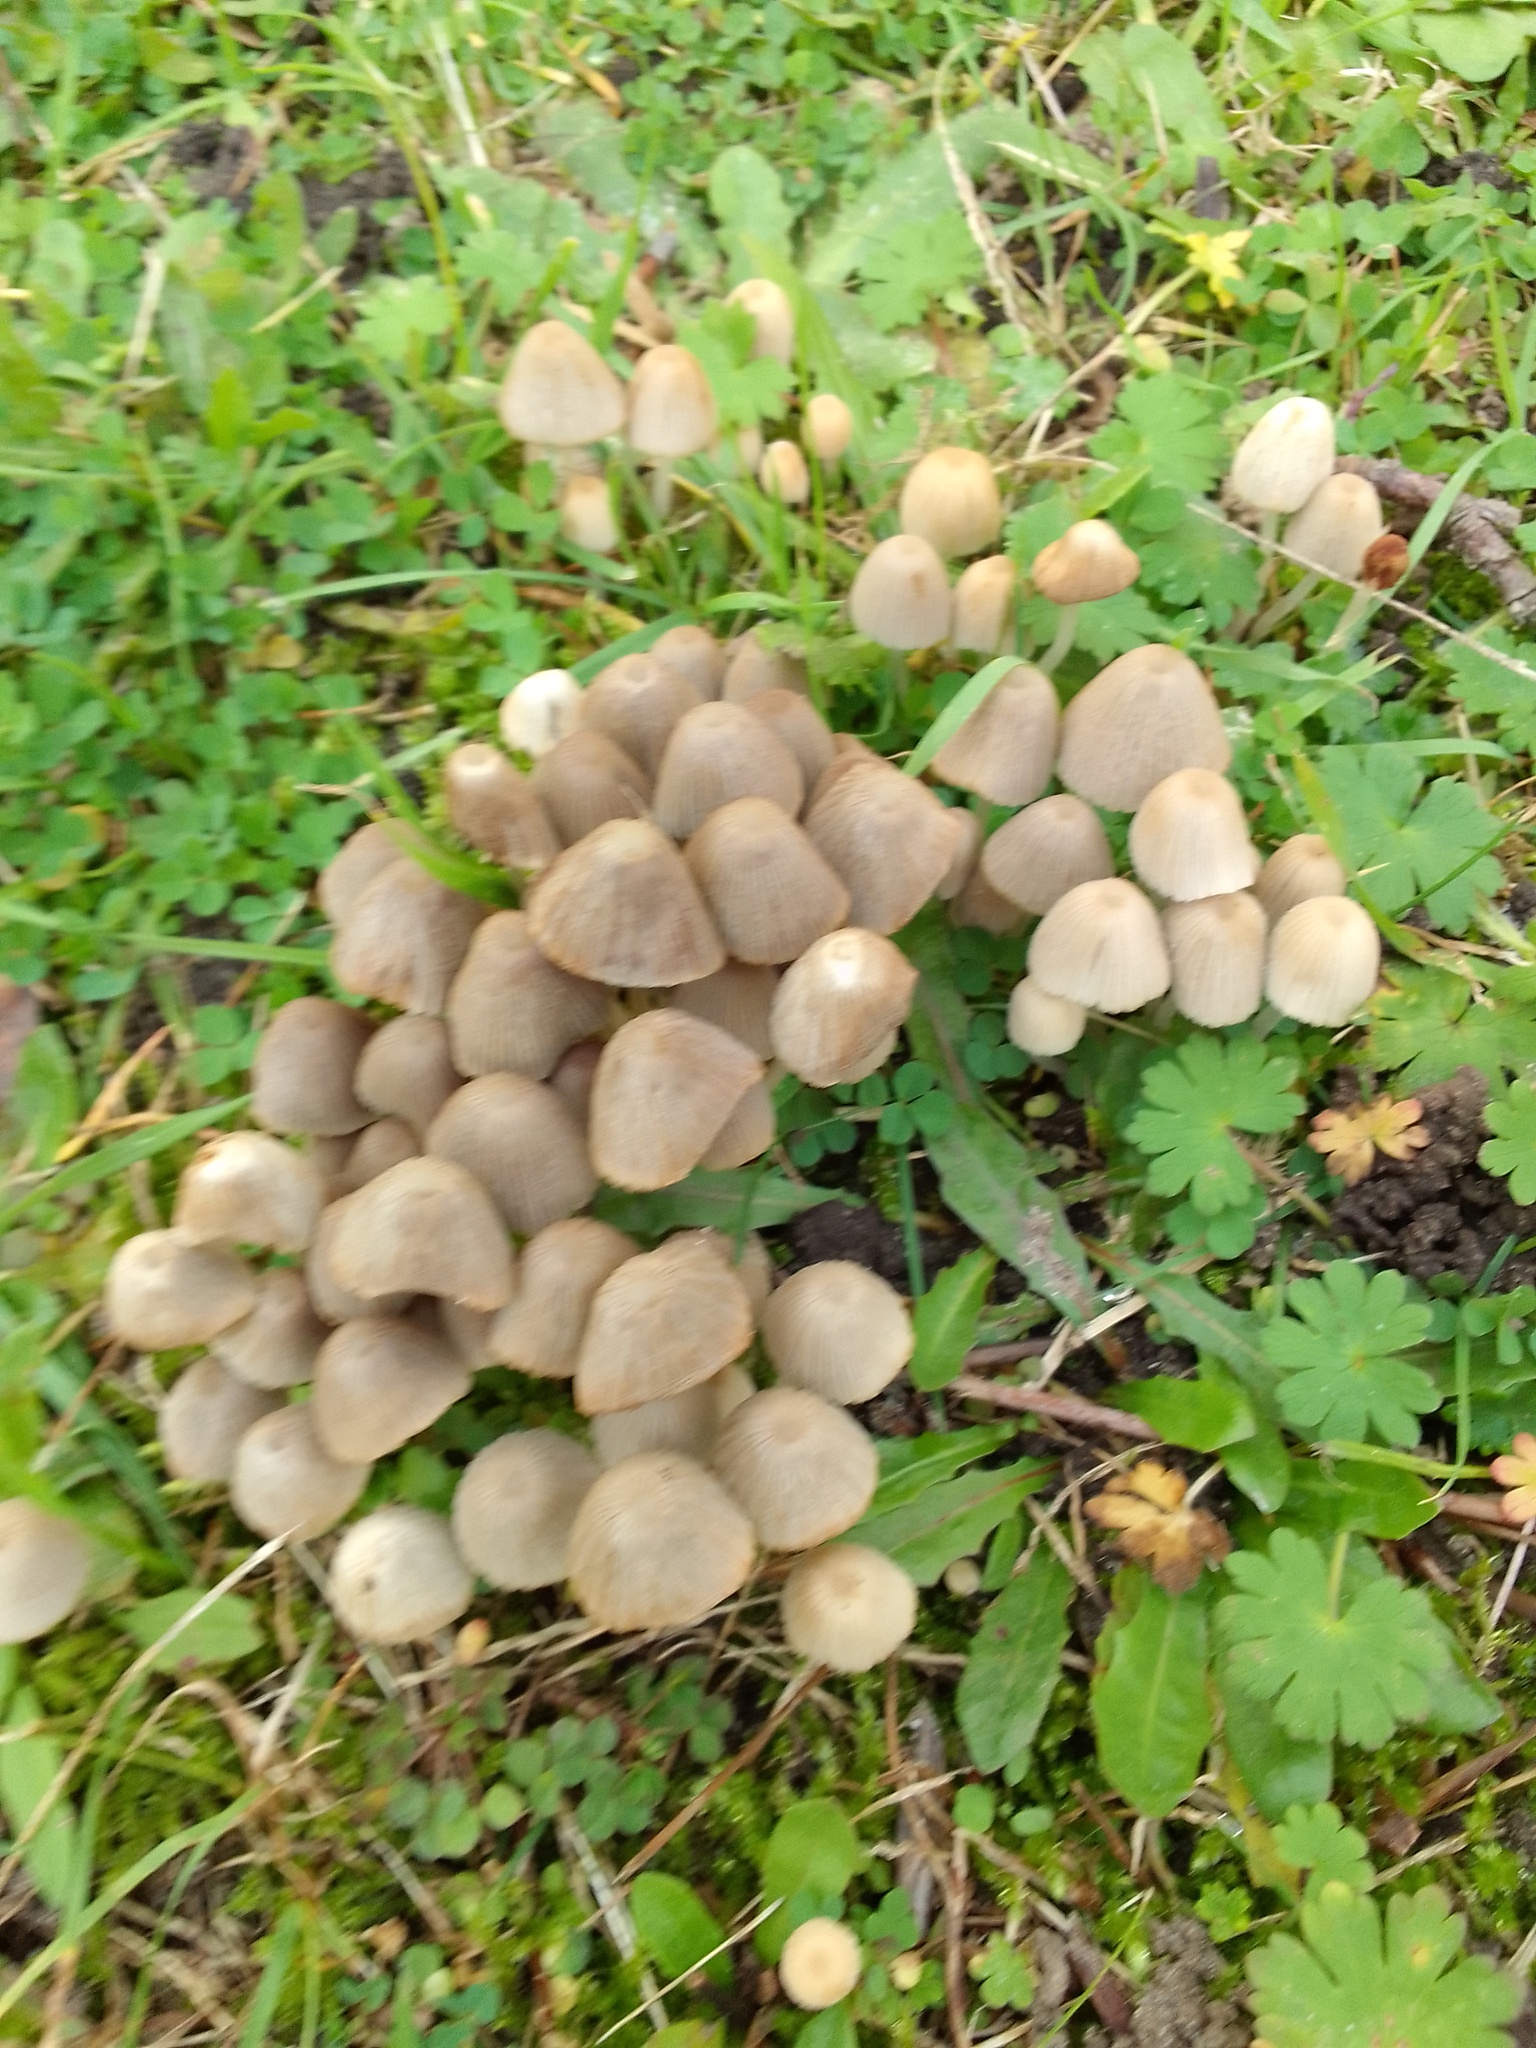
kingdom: Fungi
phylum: Basidiomycota
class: Agaricomycetes
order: Agaricales
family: Psathyrellaceae
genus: Coprinellus
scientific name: Coprinellus disseminatus
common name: Fairies' bonnets
